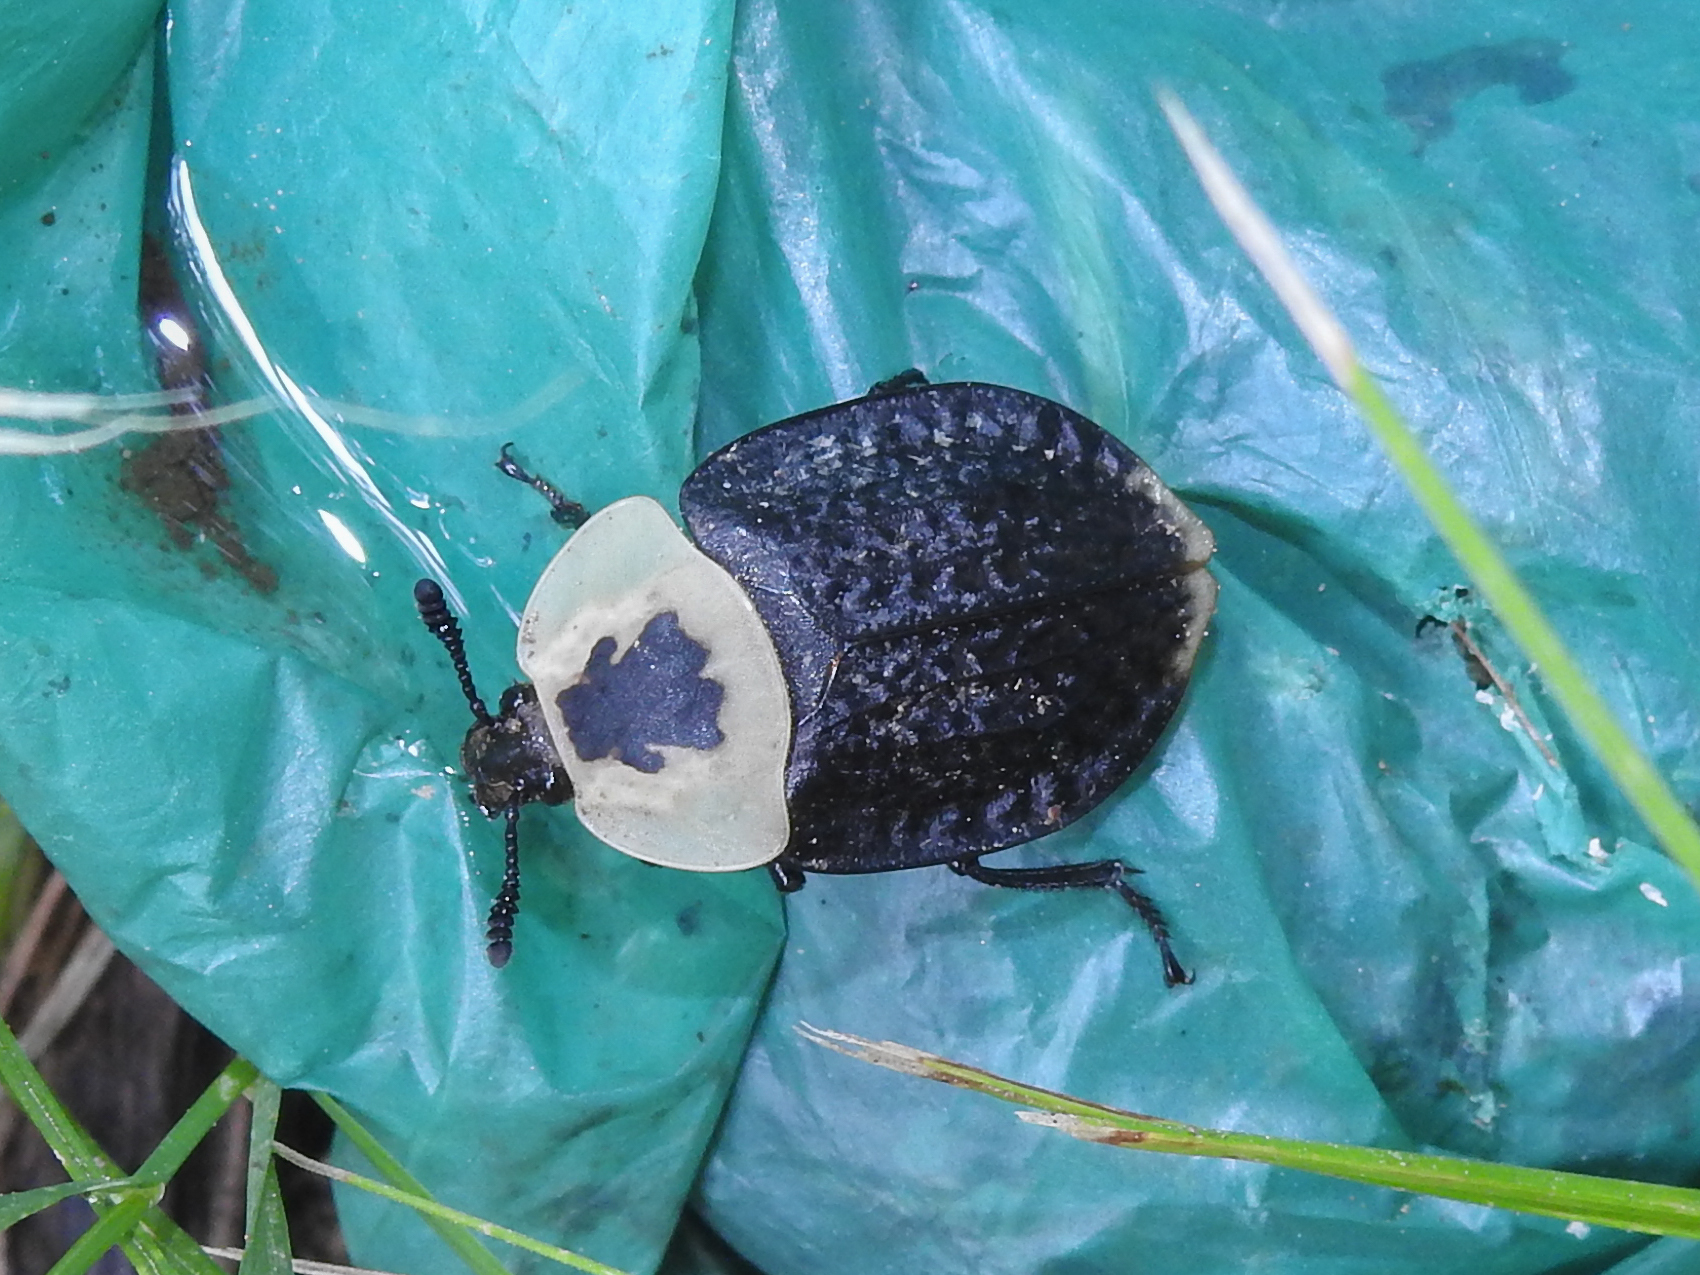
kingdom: Animalia
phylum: Arthropoda
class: Insecta
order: Coleoptera
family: Staphylinidae
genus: Necrophila
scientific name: Necrophila americana
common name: American carrion beetle
